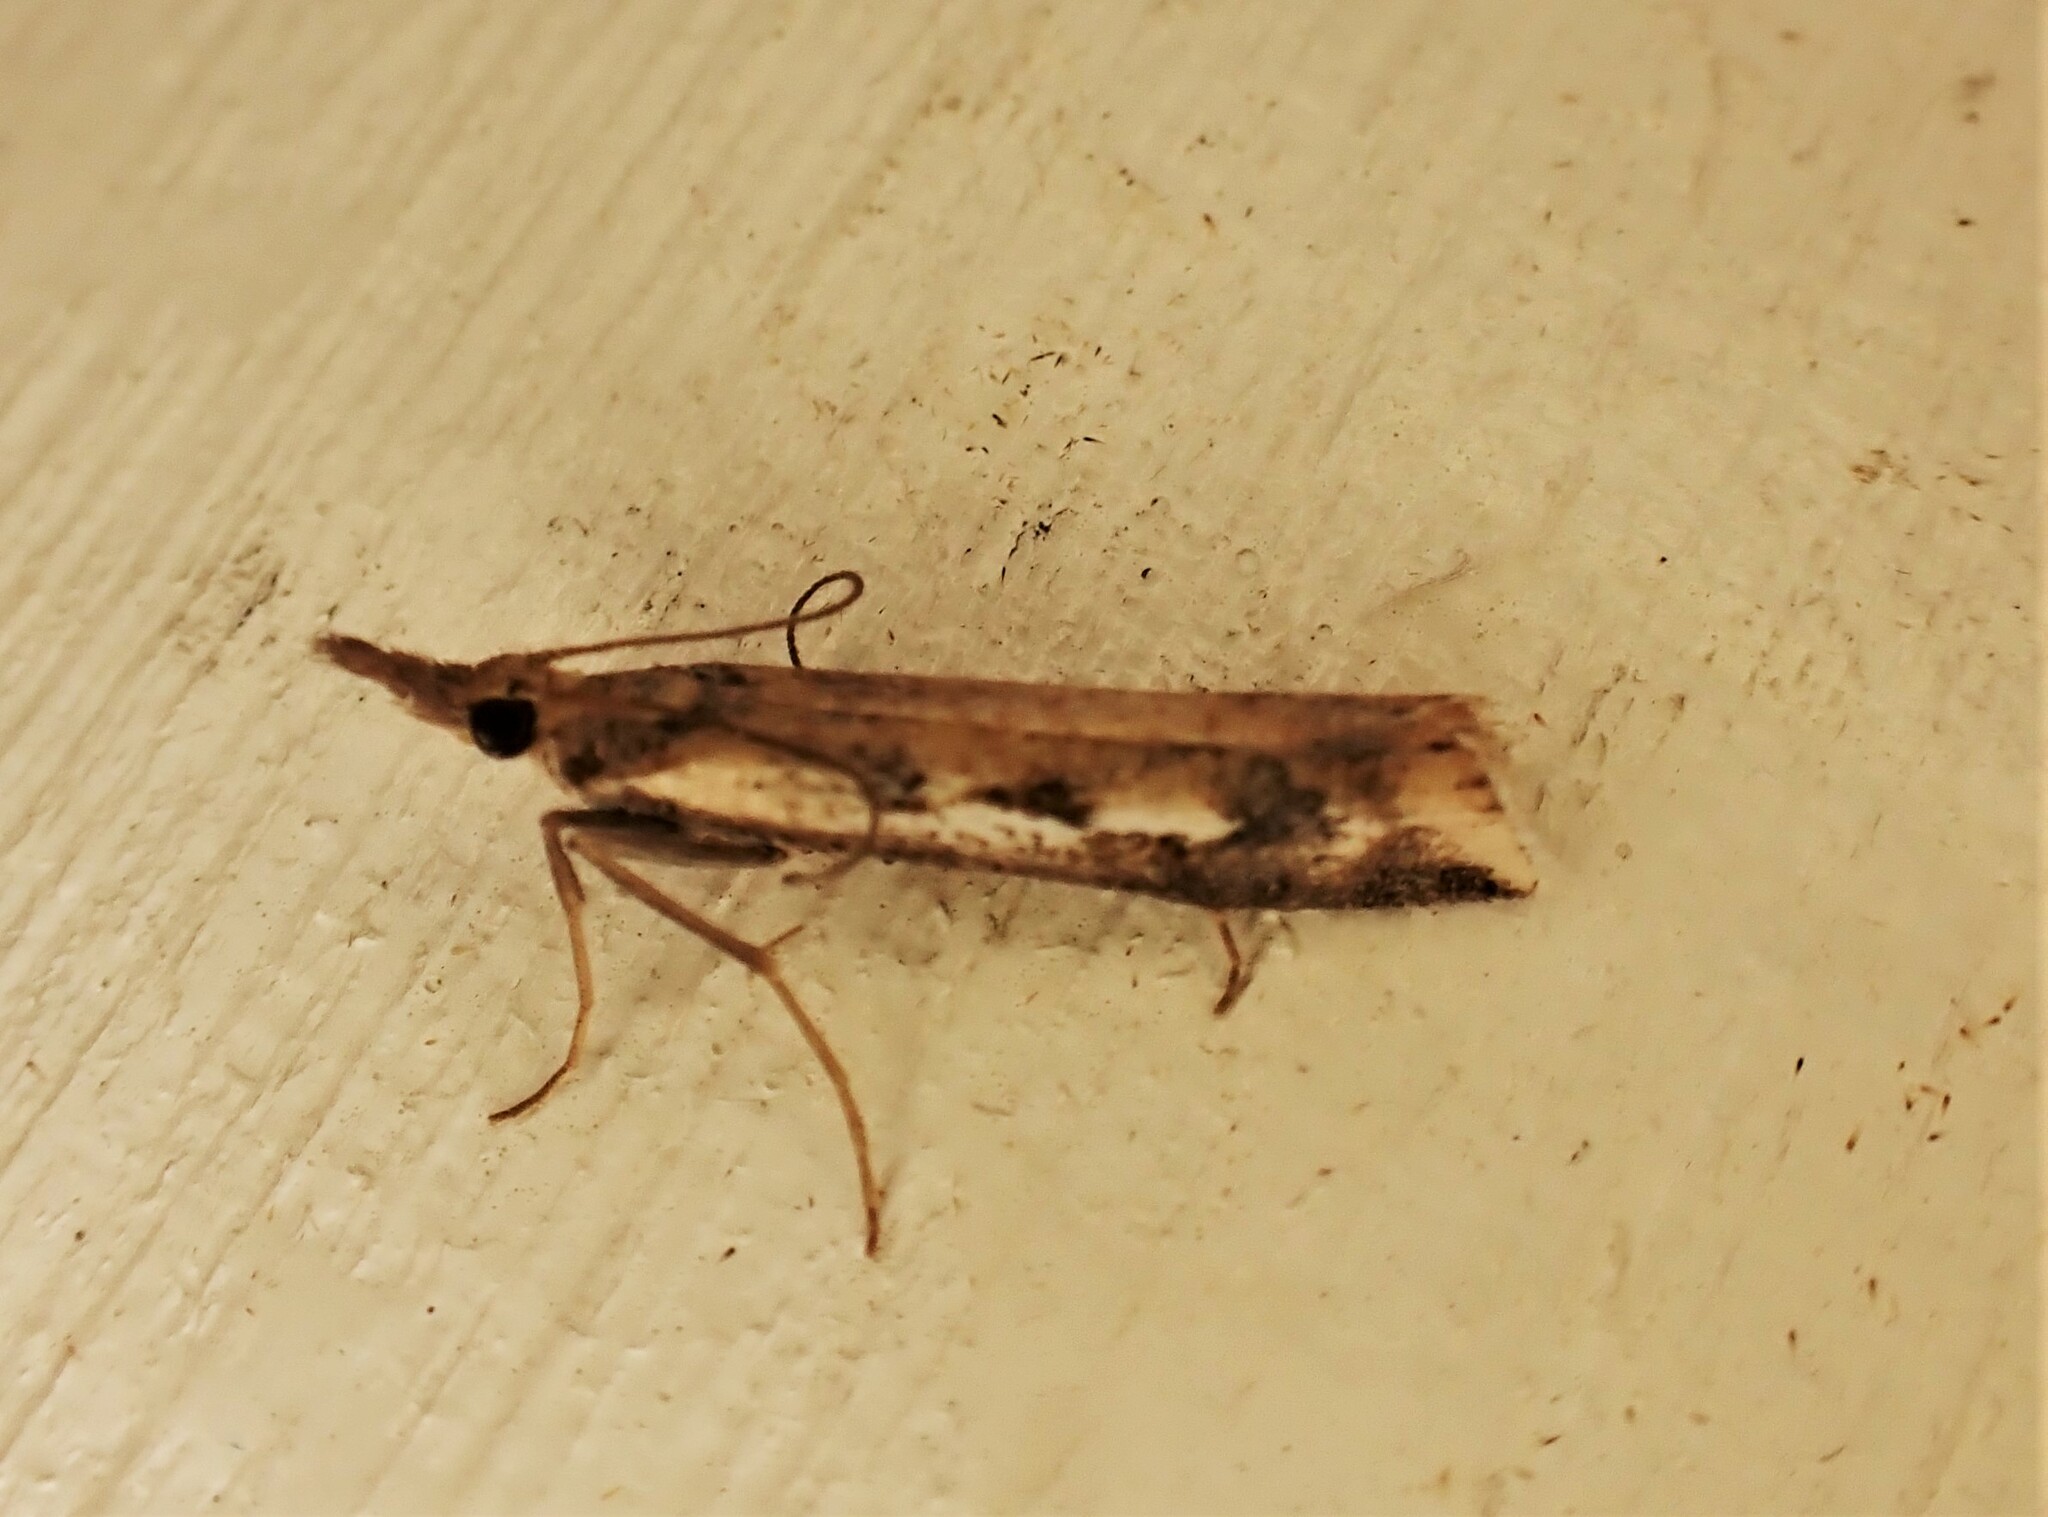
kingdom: Animalia
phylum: Arthropoda
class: Insecta
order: Lepidoptera
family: Crambidae
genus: Orocrambus
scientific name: Orocrambus vulgaris
